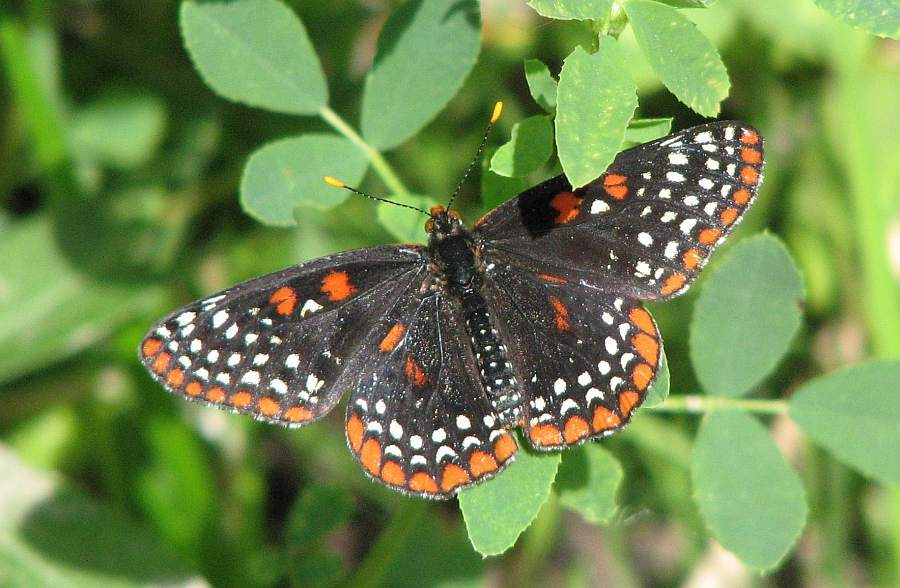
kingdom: Animalia
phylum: Arthropoda
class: Insecta
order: Lepidoptera
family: Nymphalidae
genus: Euphydryas
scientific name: Euphydryas phaeton
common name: Baltimore checkerspot
